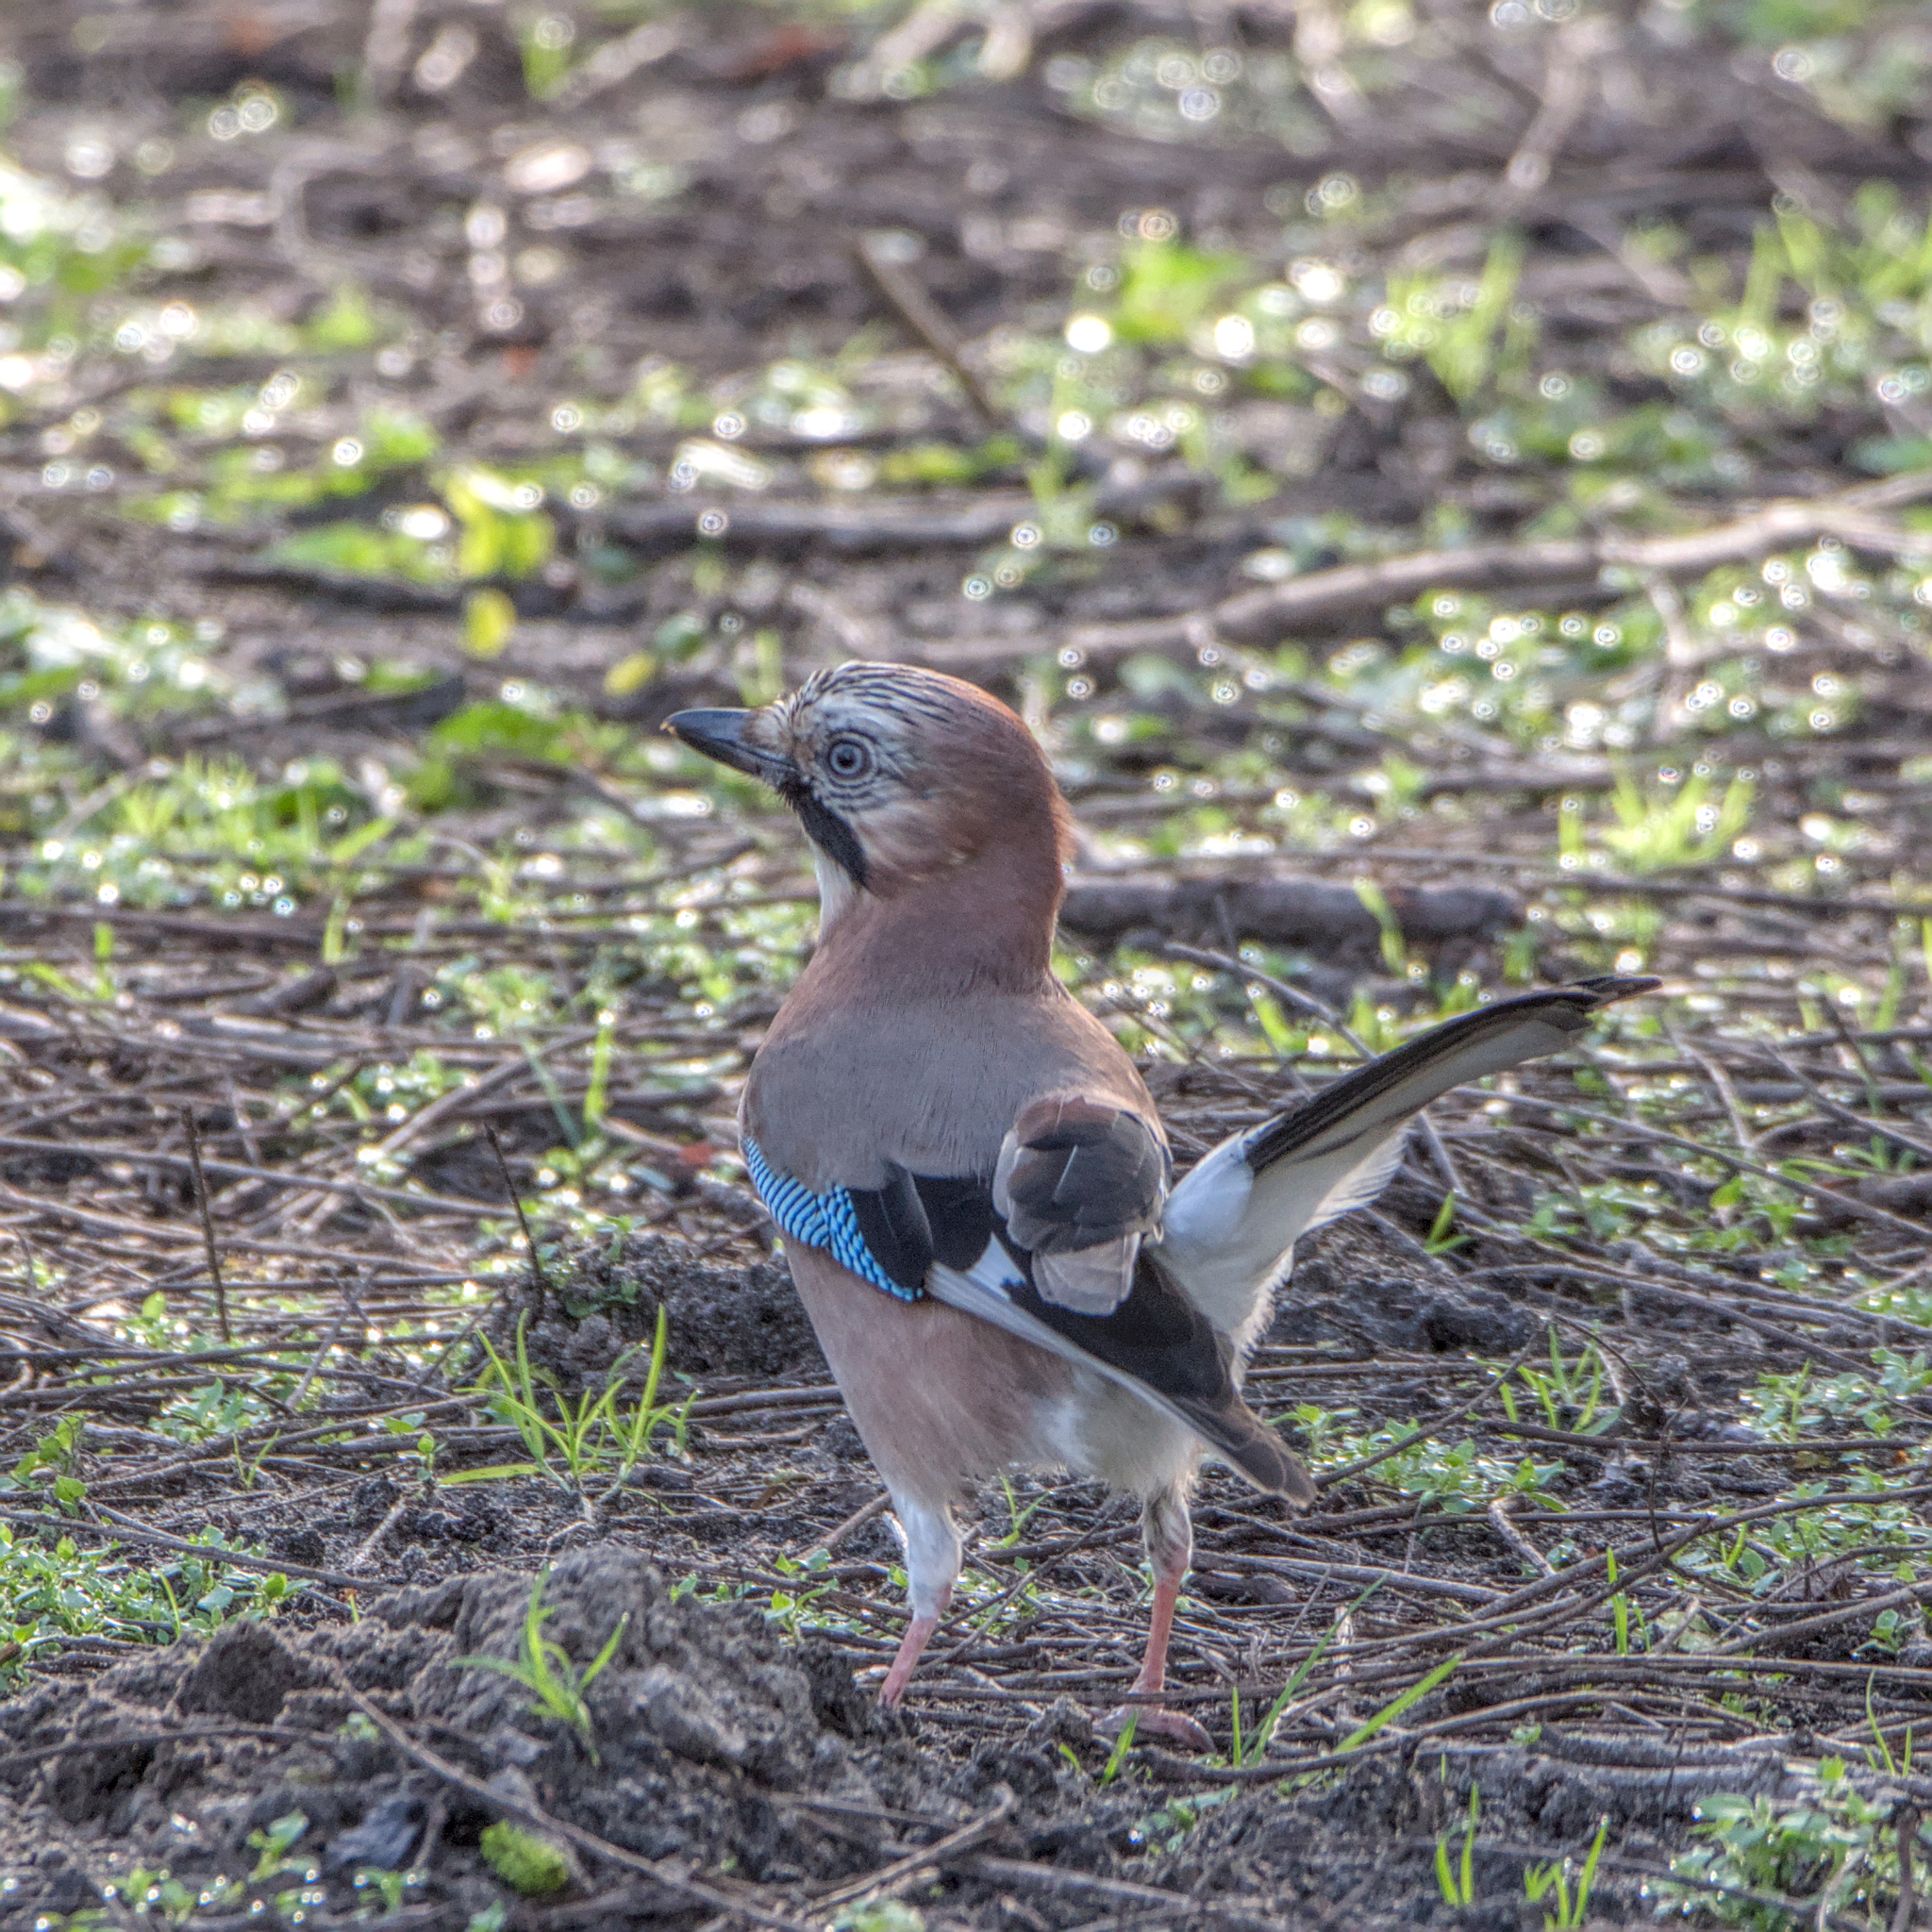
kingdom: Animalia
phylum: Chordata
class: Aves
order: Passeriformes
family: Corvidae
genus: Garrulus
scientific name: Garrulus glandarius
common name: Eurasian jay
